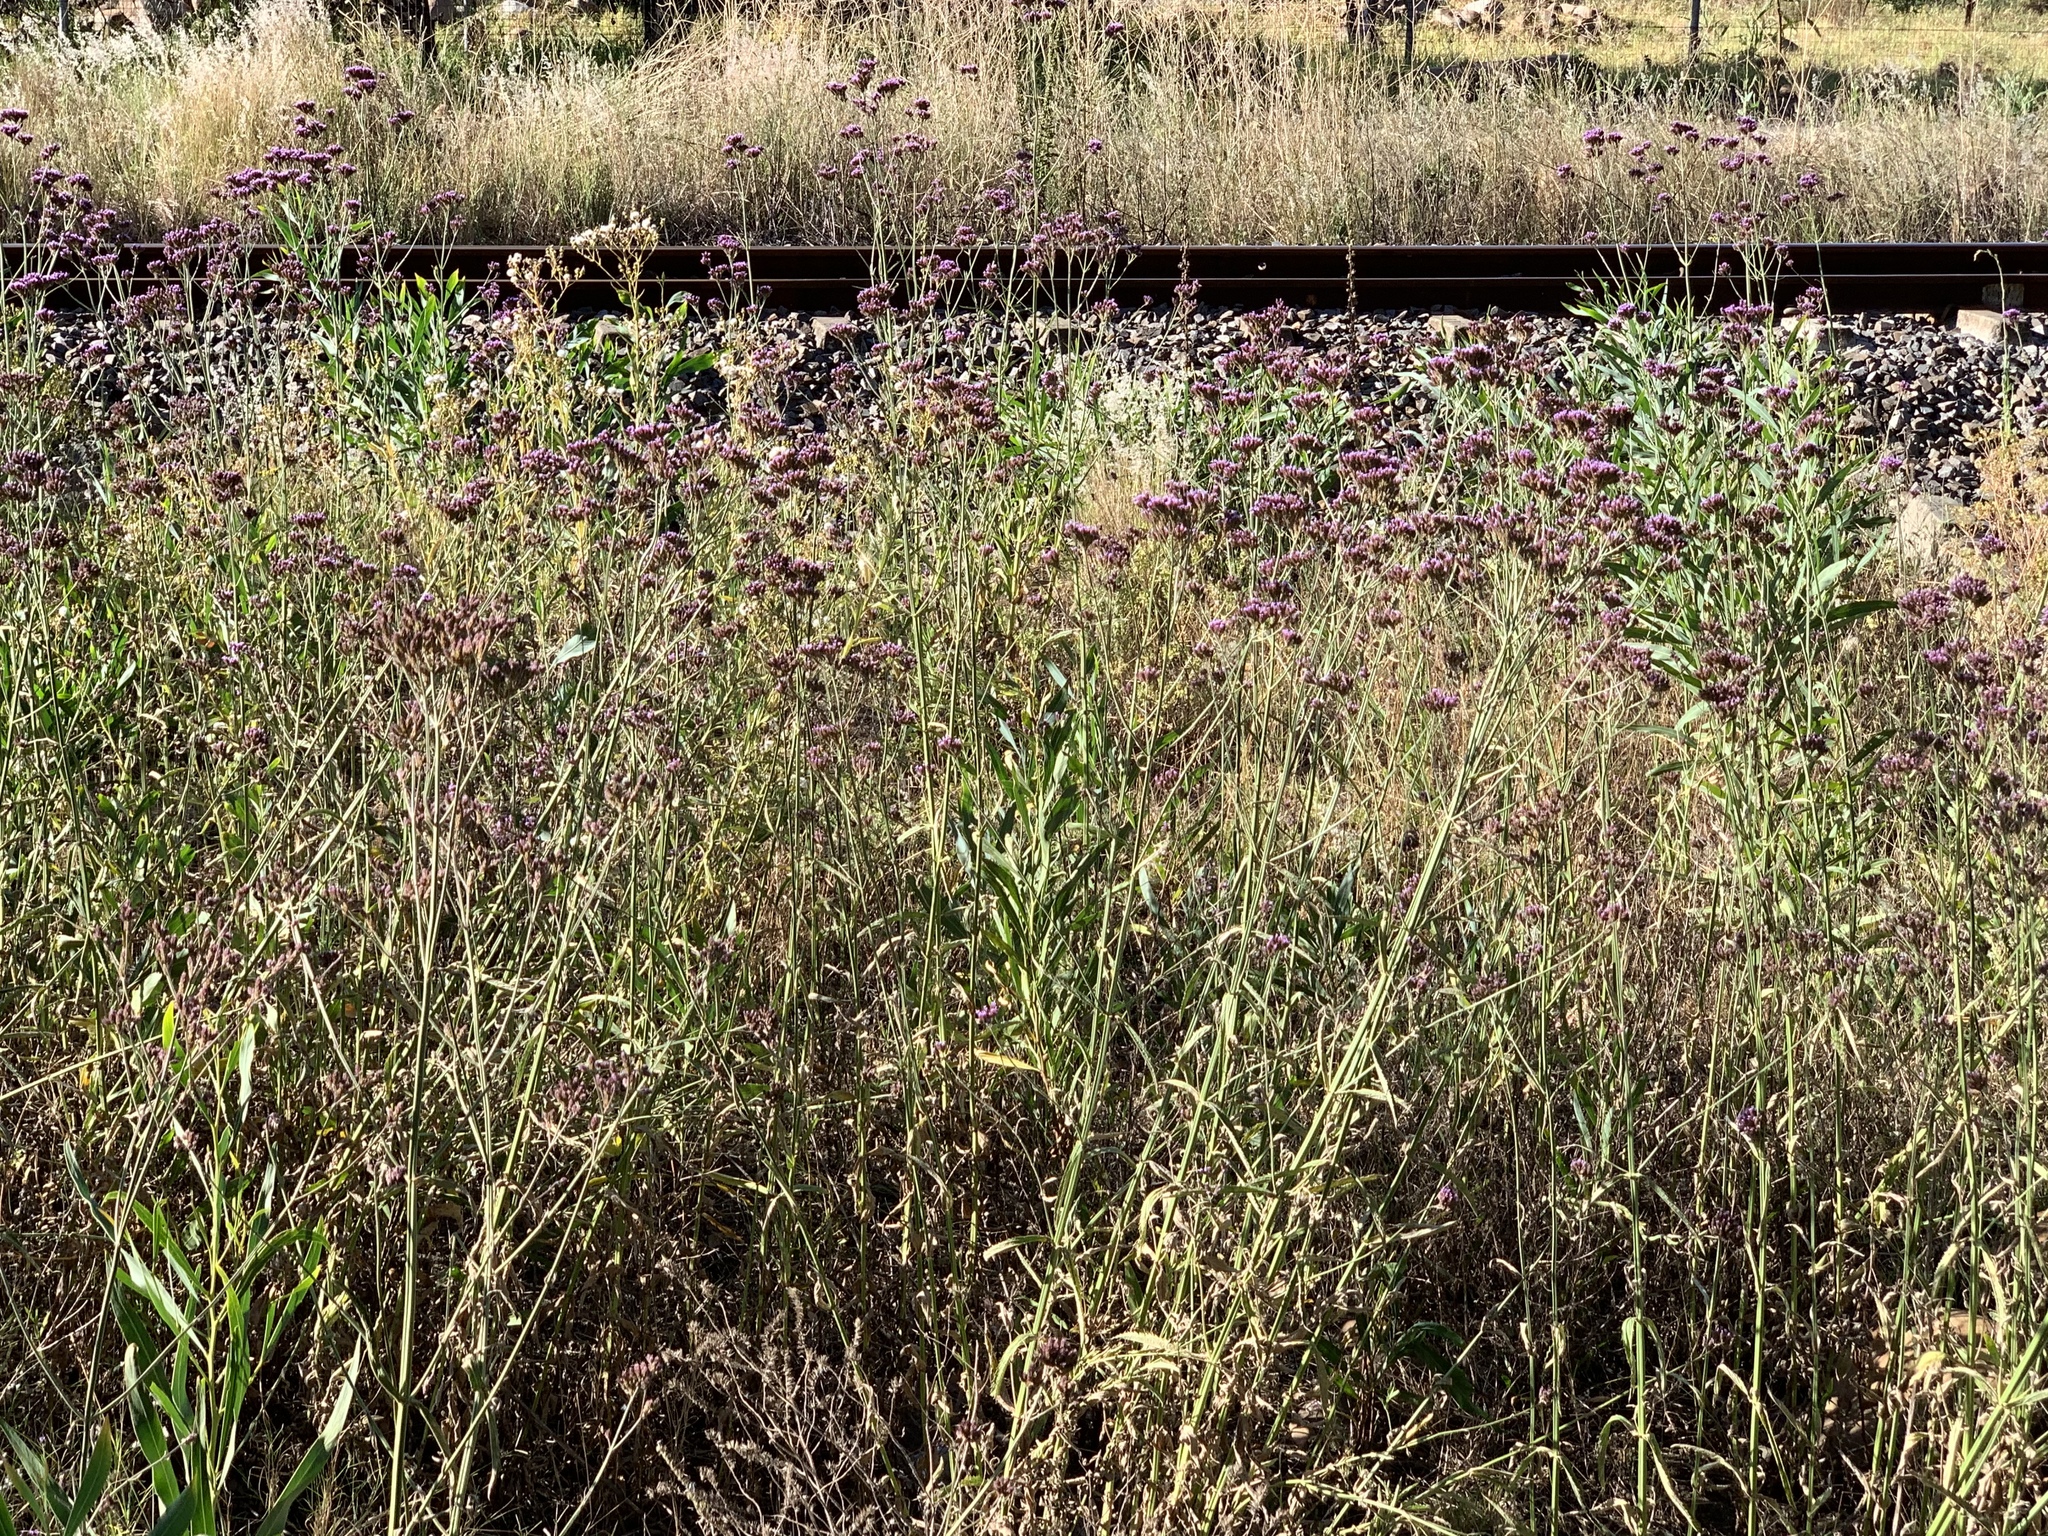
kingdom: Plantae
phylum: Tracheophyta
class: Magnoliopsida
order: Lamiales
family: Verbenaceae
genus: Verbena
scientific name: Verbena bonariensis
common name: Purpletop vervain
